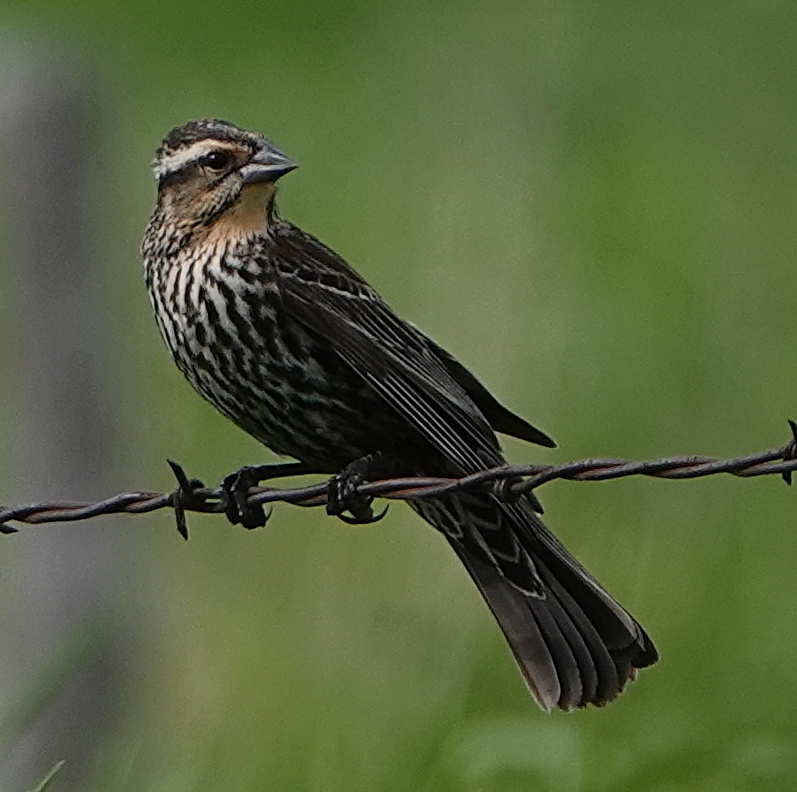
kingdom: Animalia
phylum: Chordata
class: Aves
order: Passeriformes
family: Icteridae
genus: Agelaius
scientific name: Agelaius phoeniceus
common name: Red-winged blackbird
